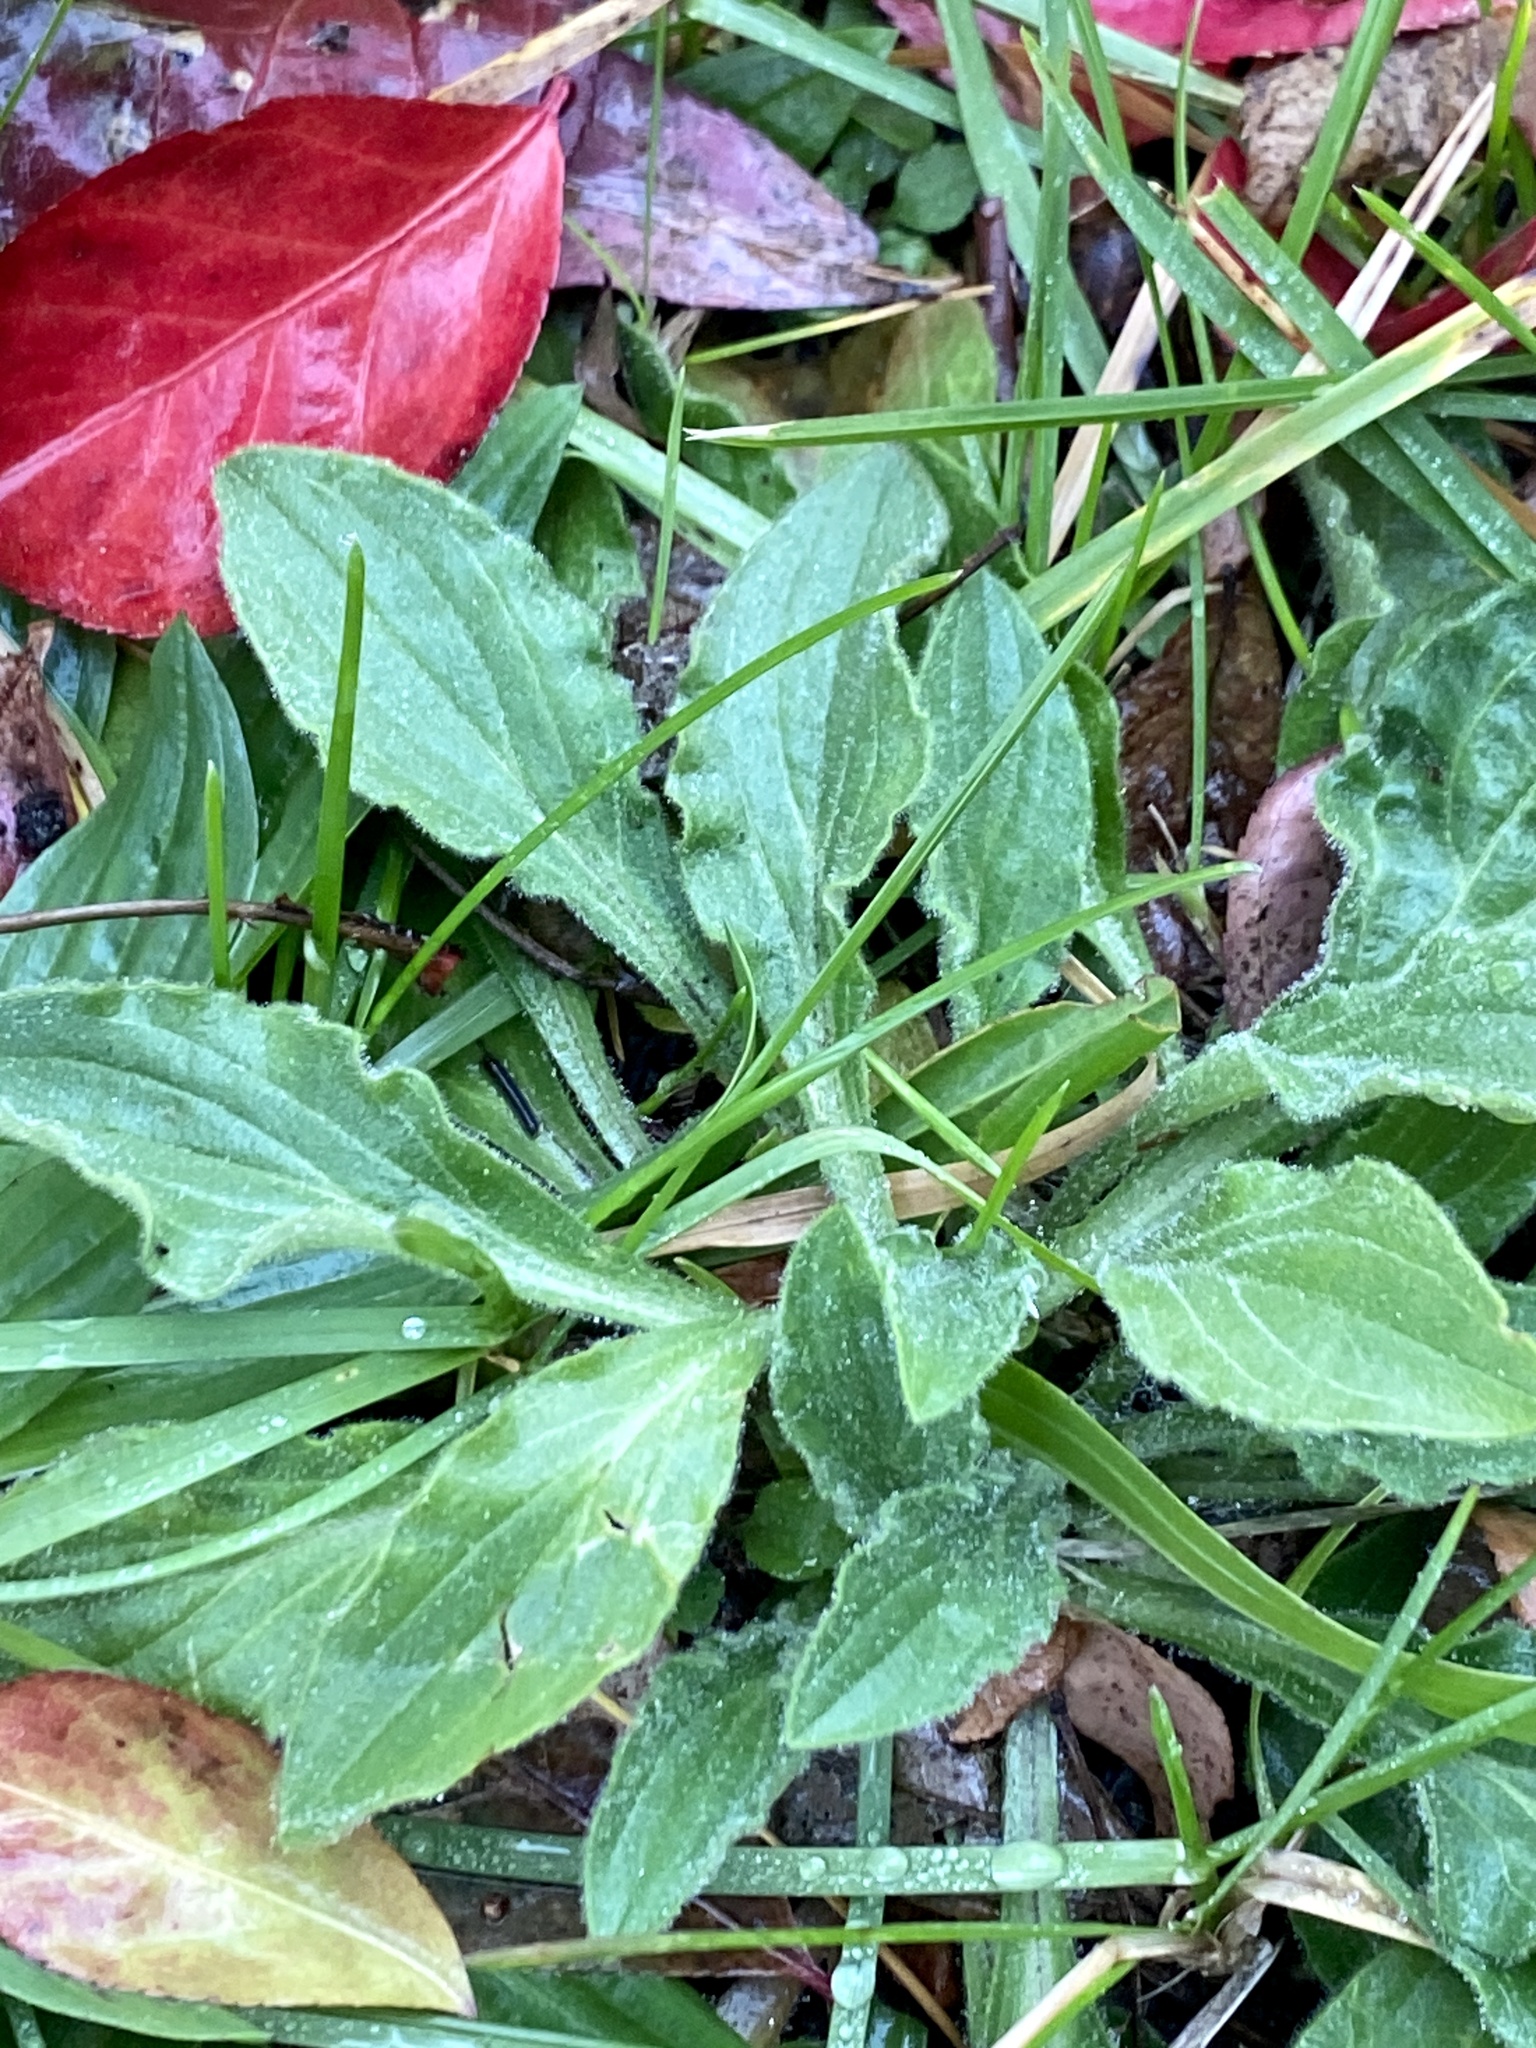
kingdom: Plantae
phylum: Tracheophyta
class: Magnoliopsida
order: Caryophyllales
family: Caryophyllaceae
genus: Silene
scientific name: Silene latifolia
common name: White campion
